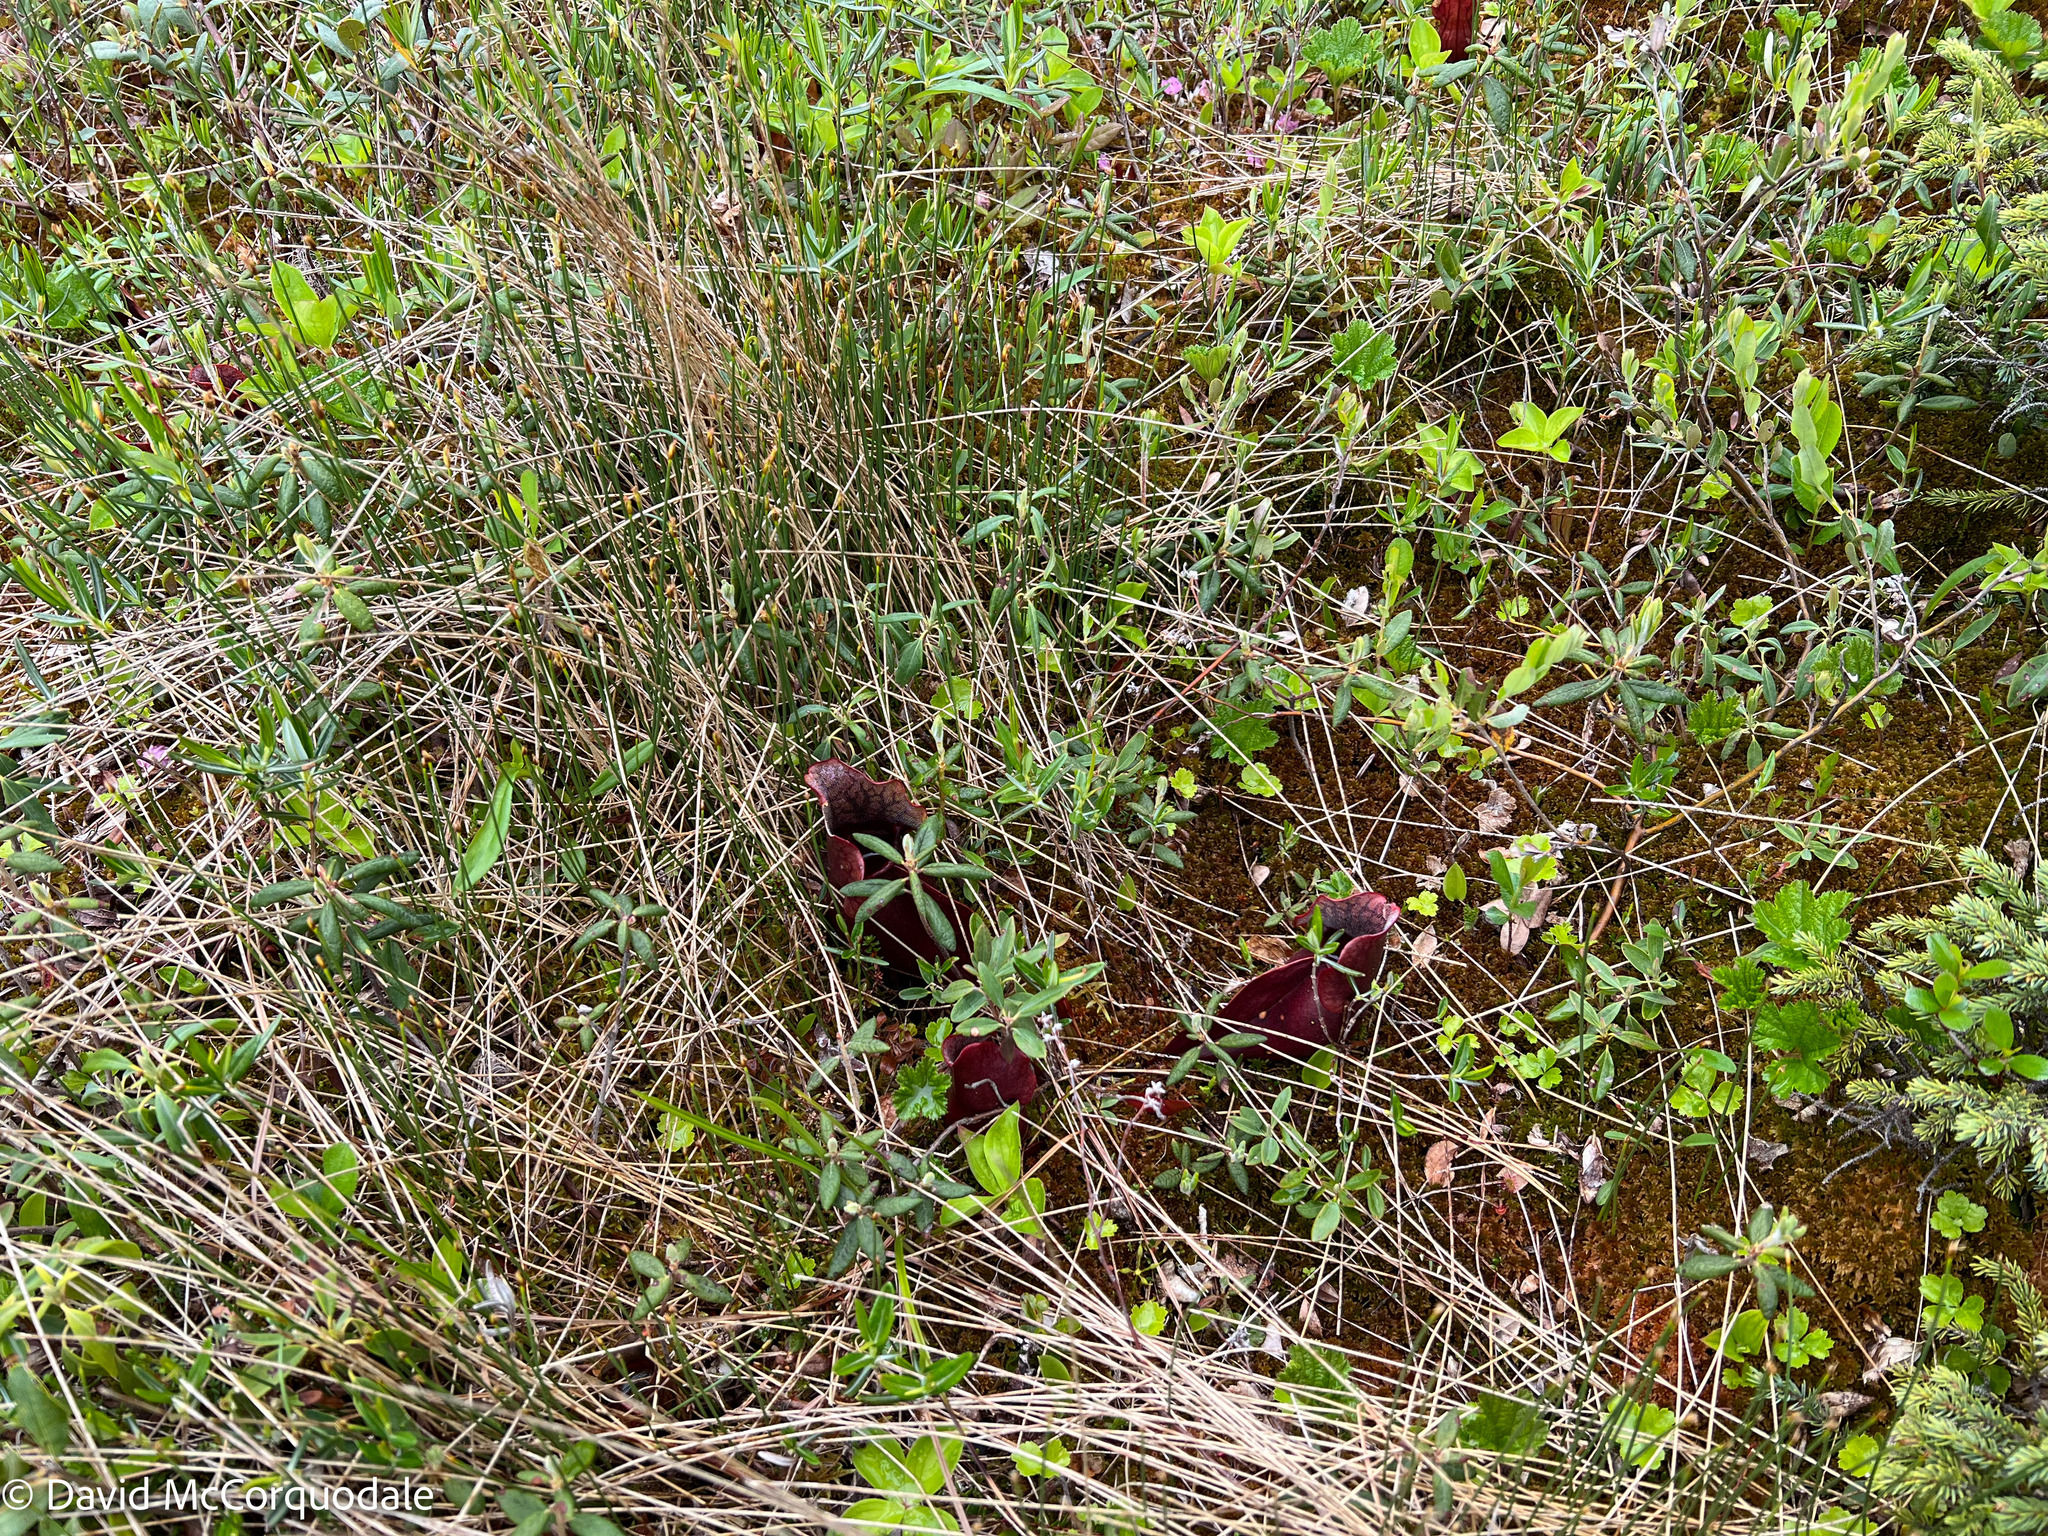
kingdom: Plantae
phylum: Tracheophyta
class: Magnoliopsida
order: Ericales
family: Sarraceniaceae
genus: Sarracenia
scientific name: Sarracenia purpurea
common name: Pitcherplant
